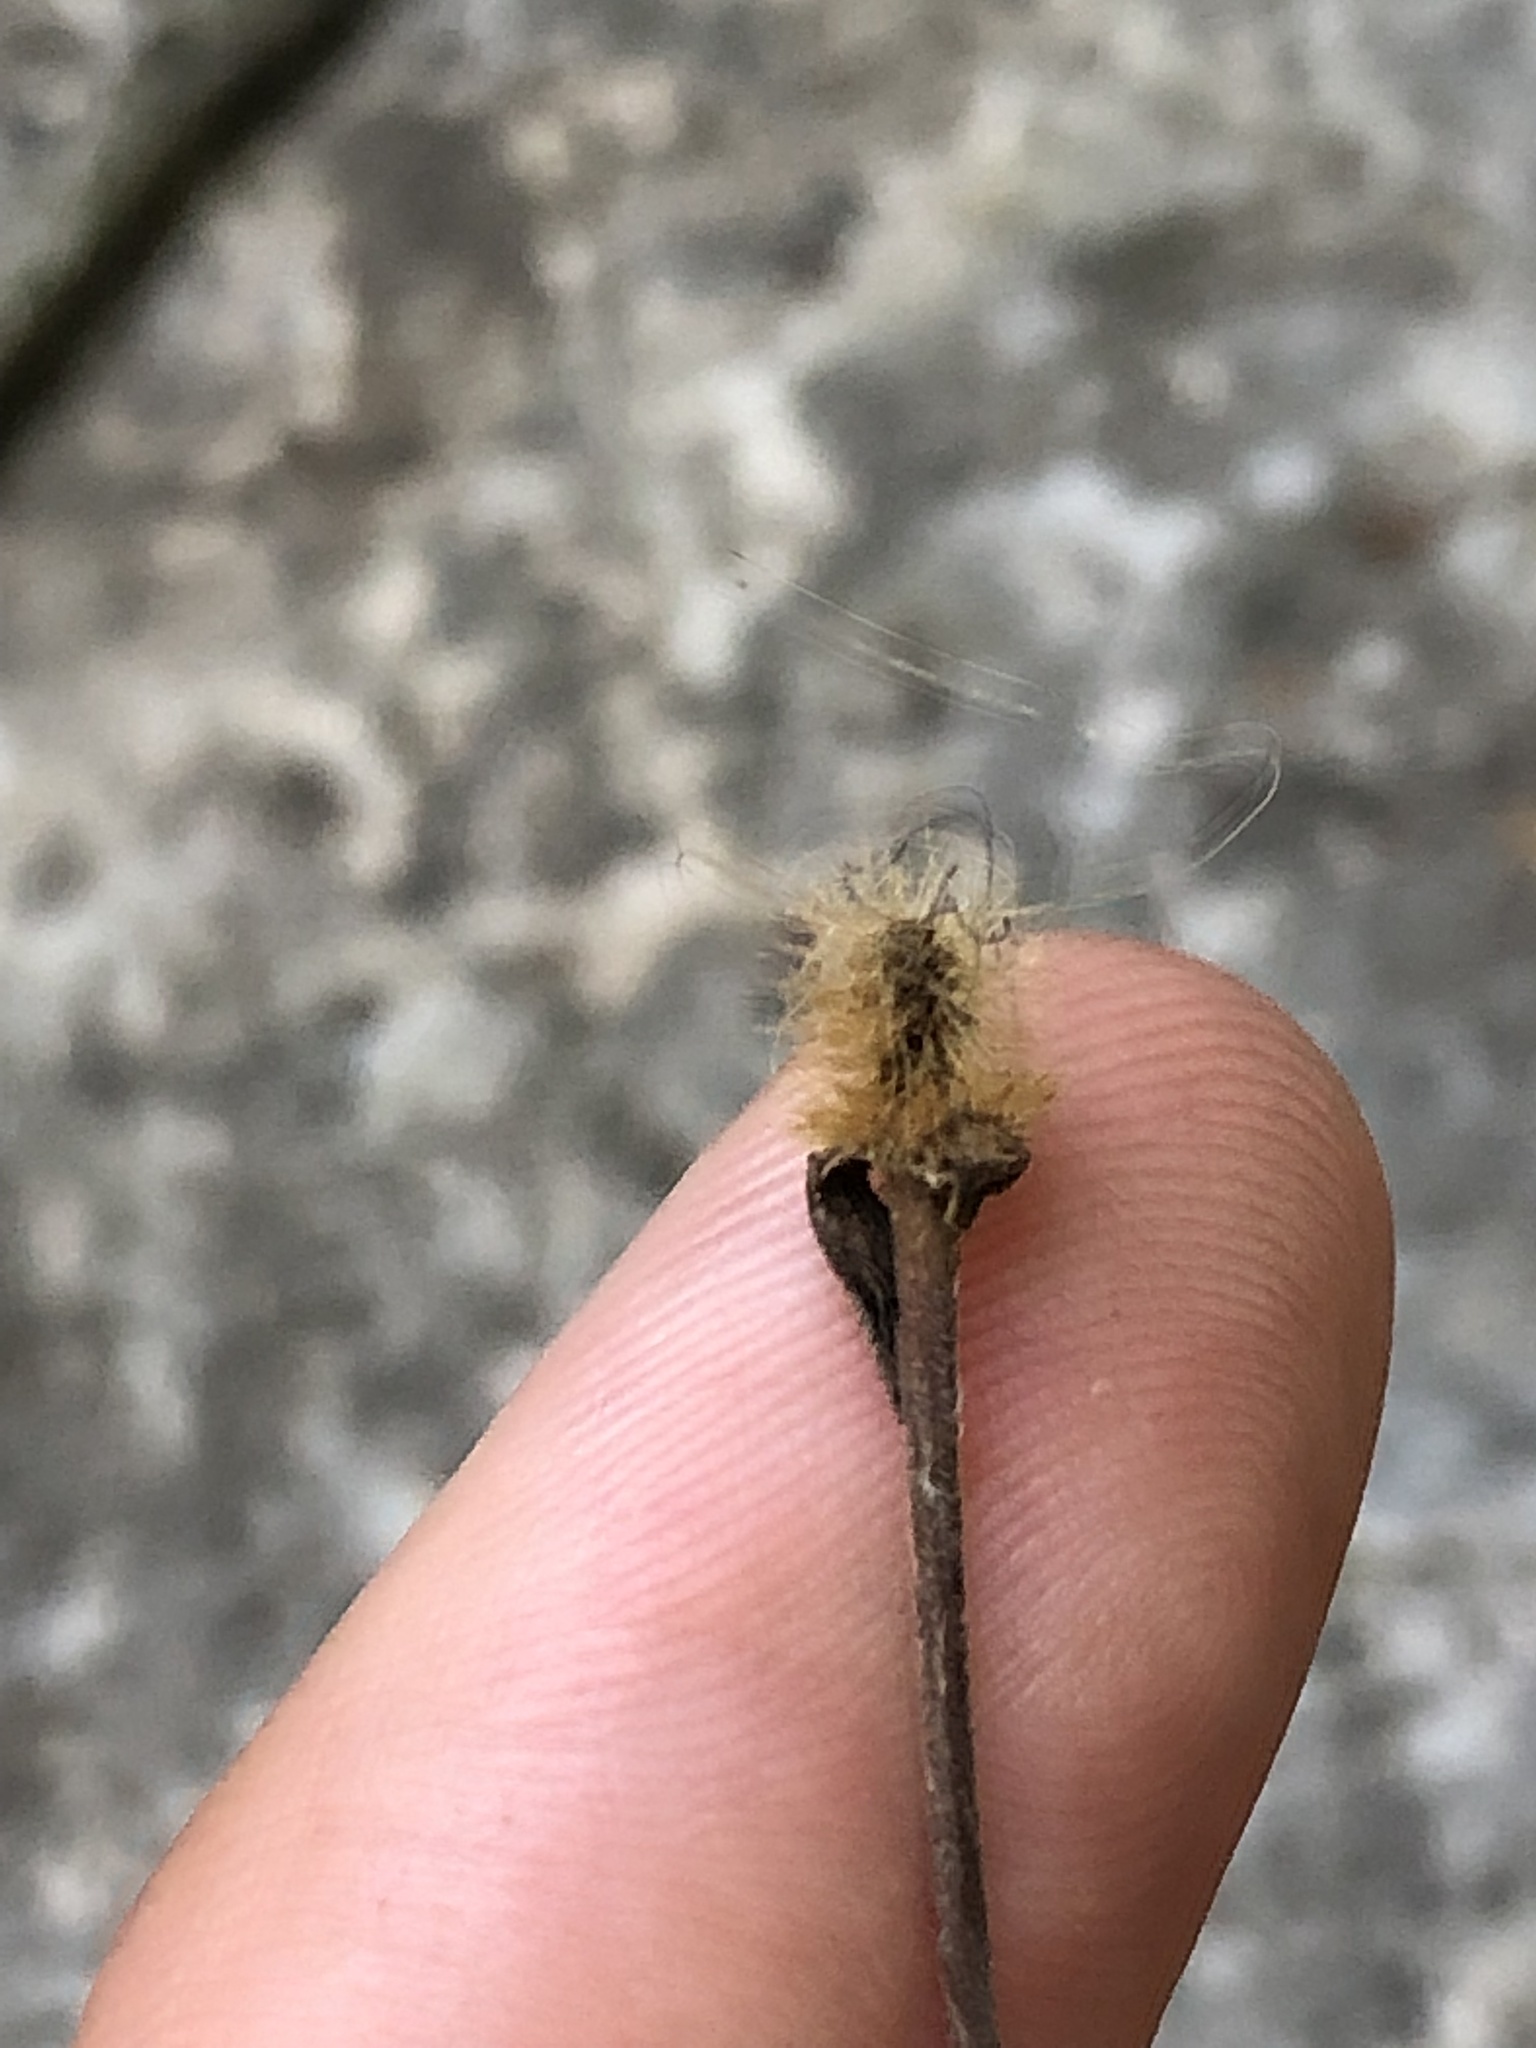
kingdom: Plantae
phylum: Tracheophyta
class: Magnoliopsida
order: Rosales
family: Rosaceae
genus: Geum
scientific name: Geum canadense
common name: White avens
